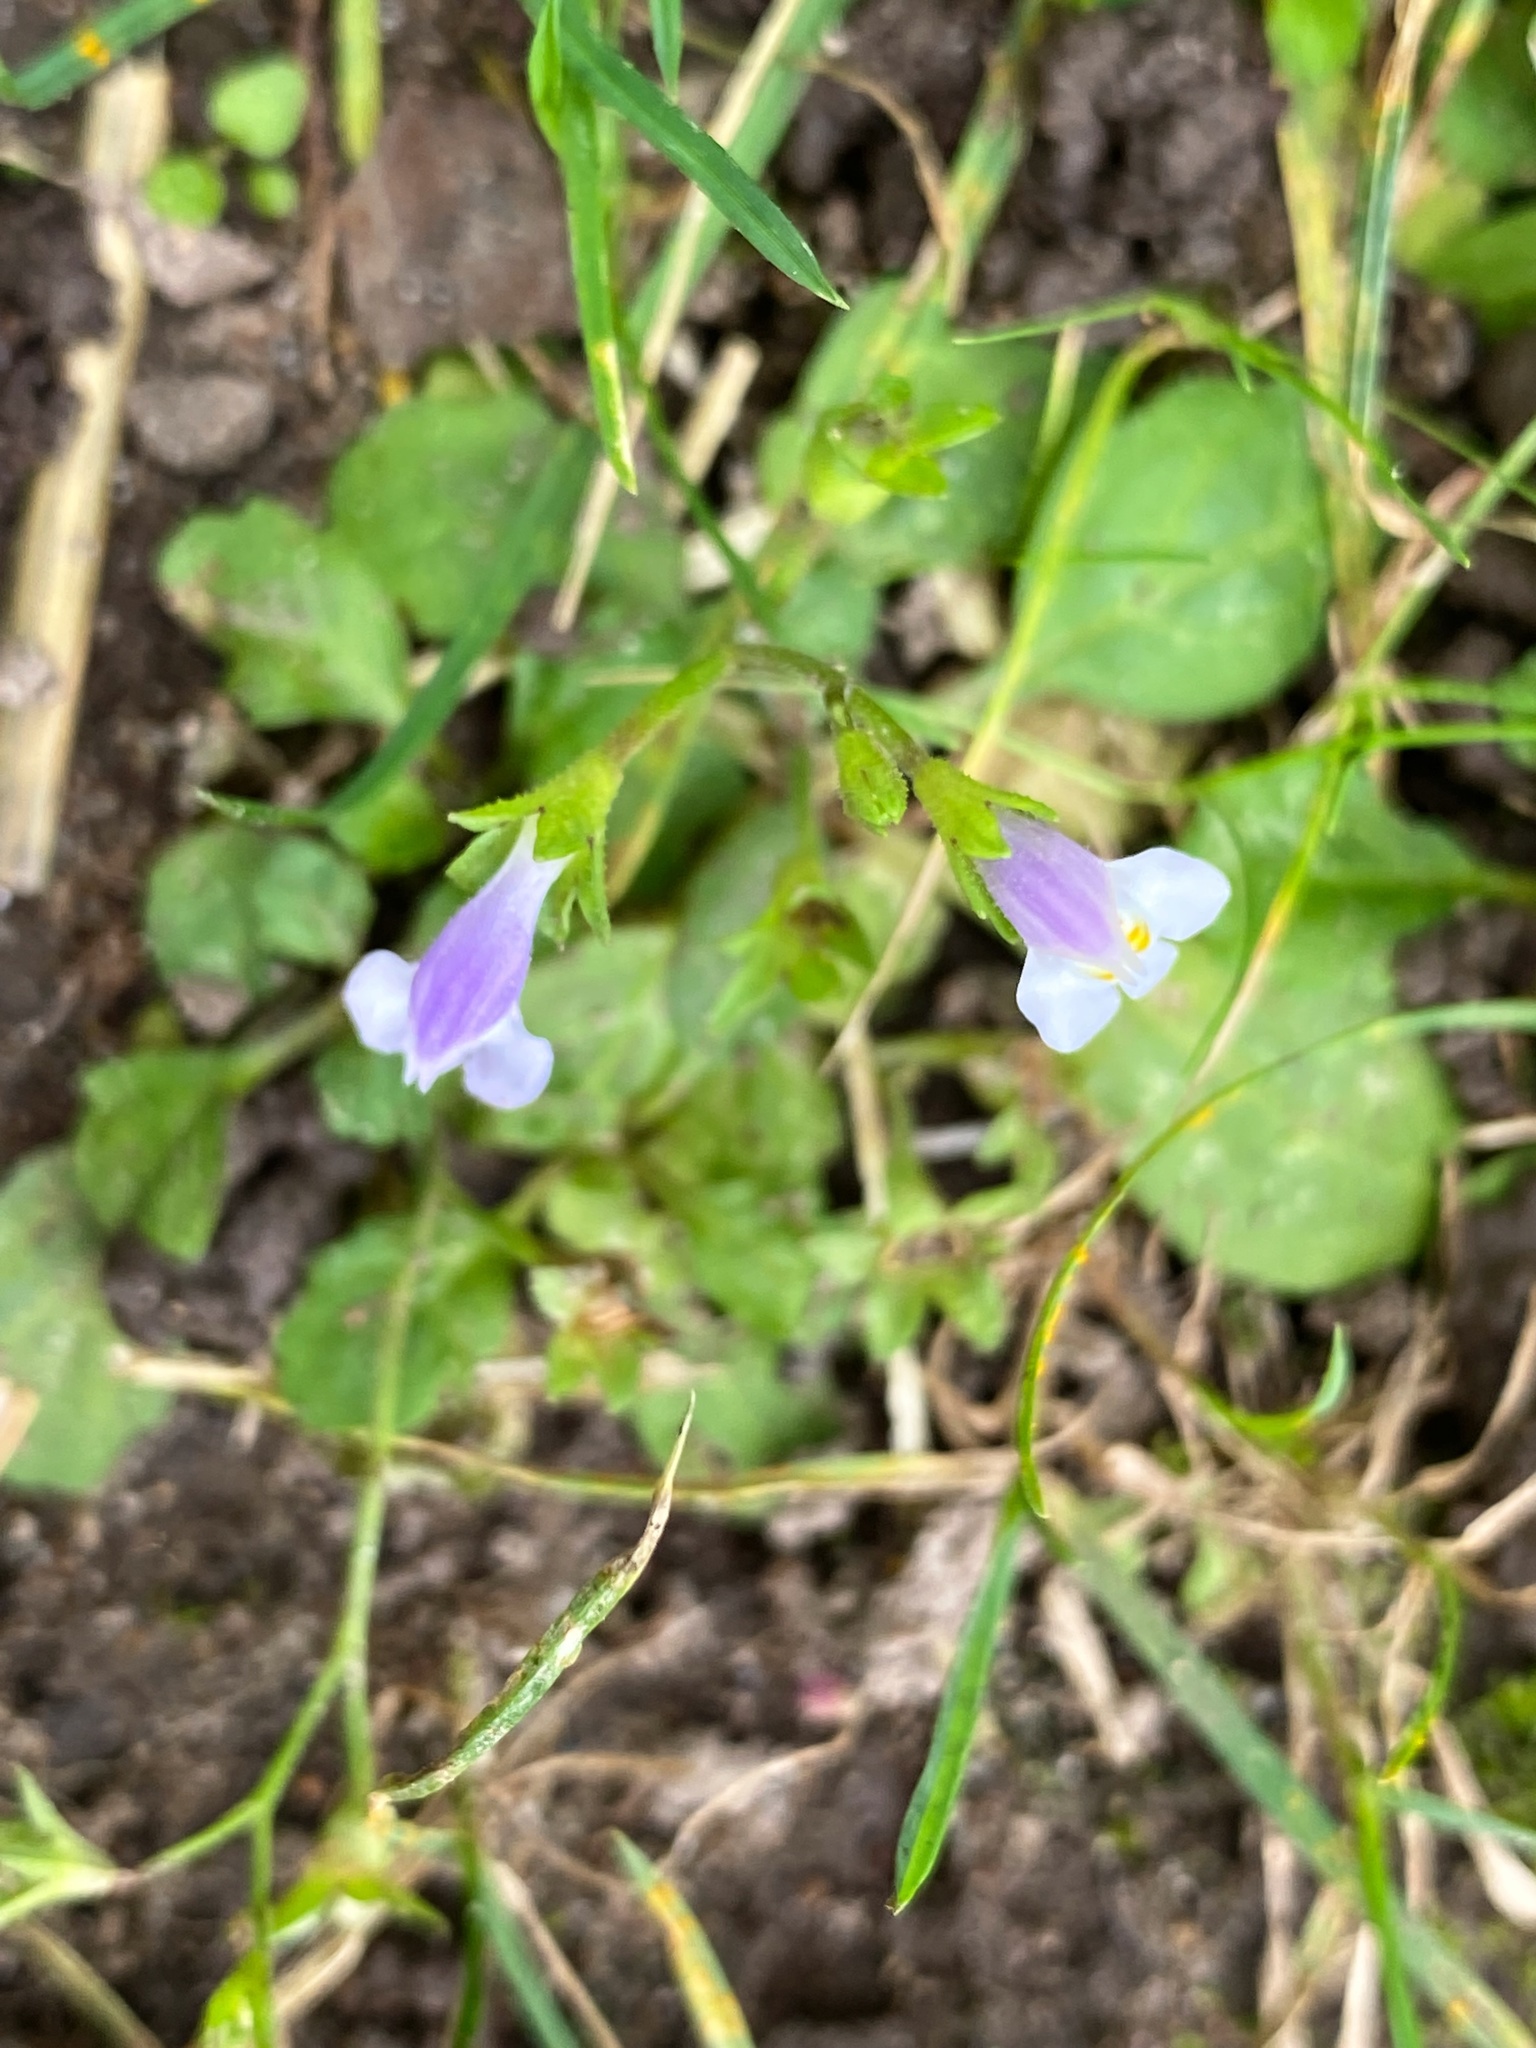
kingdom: Plantae
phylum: Tracheophyta
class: Magnoliopsida
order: Lamiales
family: Mazaceae
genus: Mazus
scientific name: Mazus pumilus
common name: Japanese mazus
